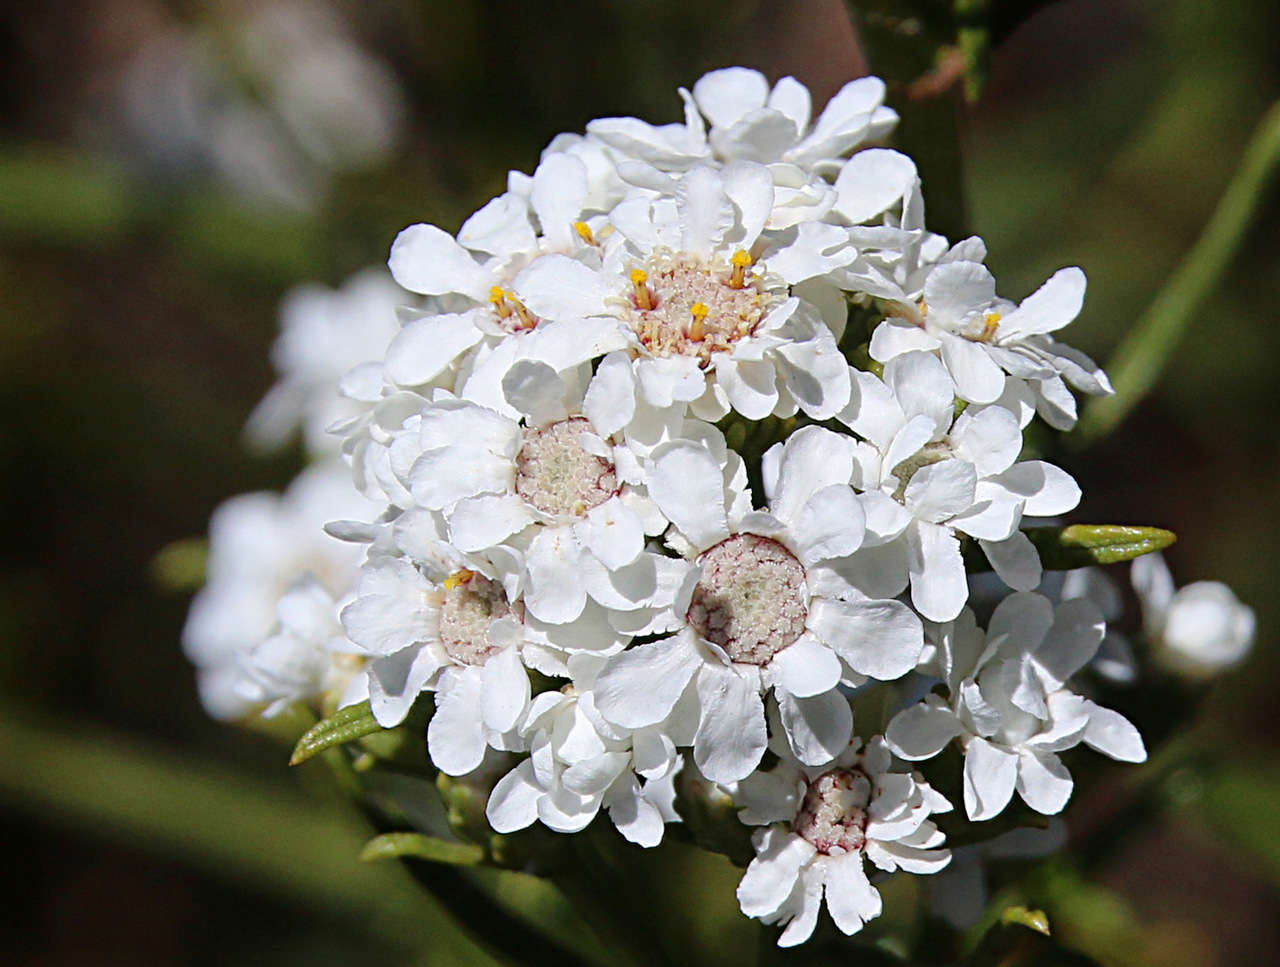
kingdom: Plantae
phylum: Tracheophyta
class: Magnoliopsida
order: Asterales
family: Asteraceae
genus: Ixodia
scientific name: Ixodia achillaeoides
